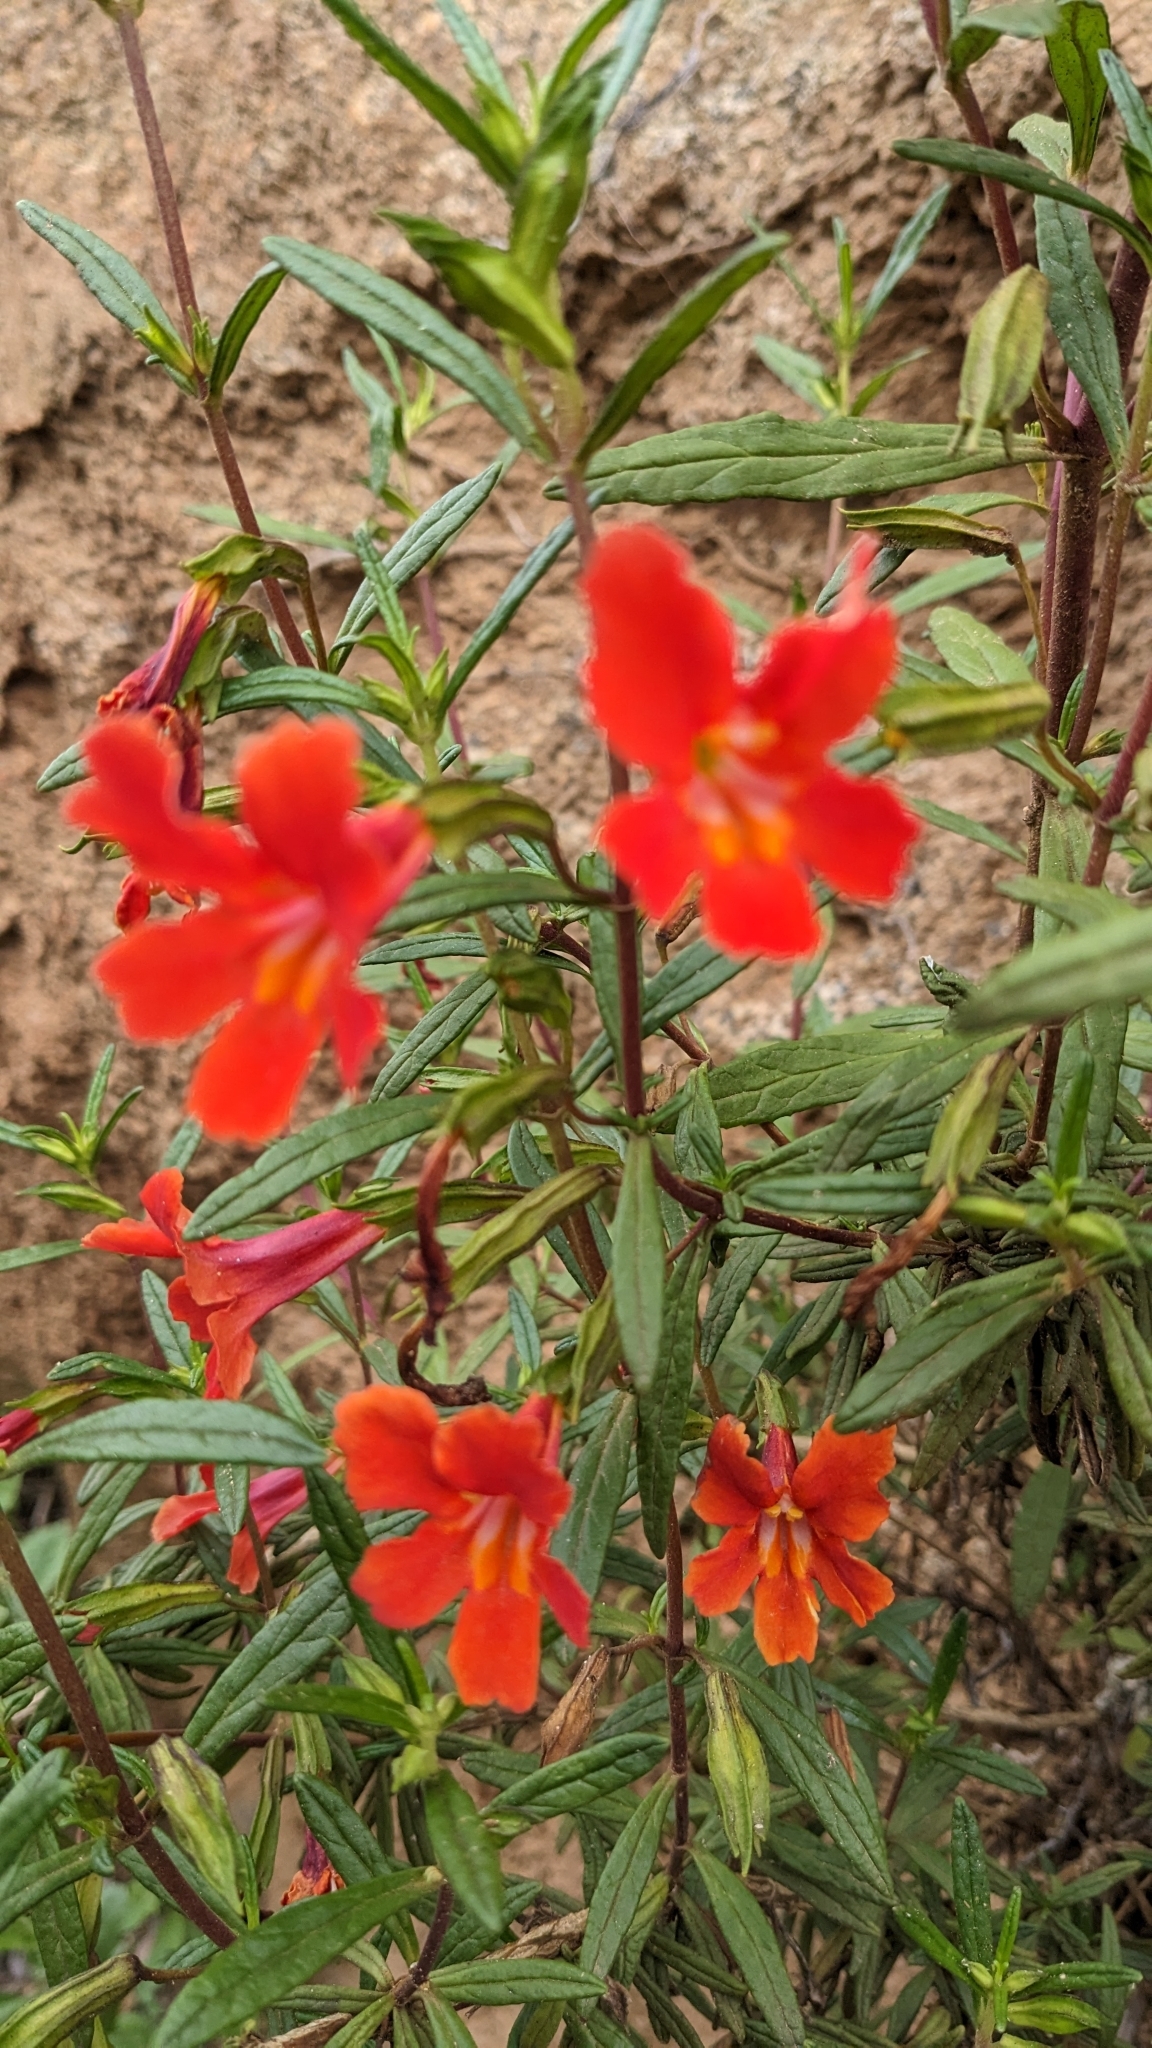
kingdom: Plantae
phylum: Tracheophyta
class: Magnoliopsida
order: Lamiales
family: Phrymaceae
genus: Diplacus
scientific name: Diplacus puniceus
